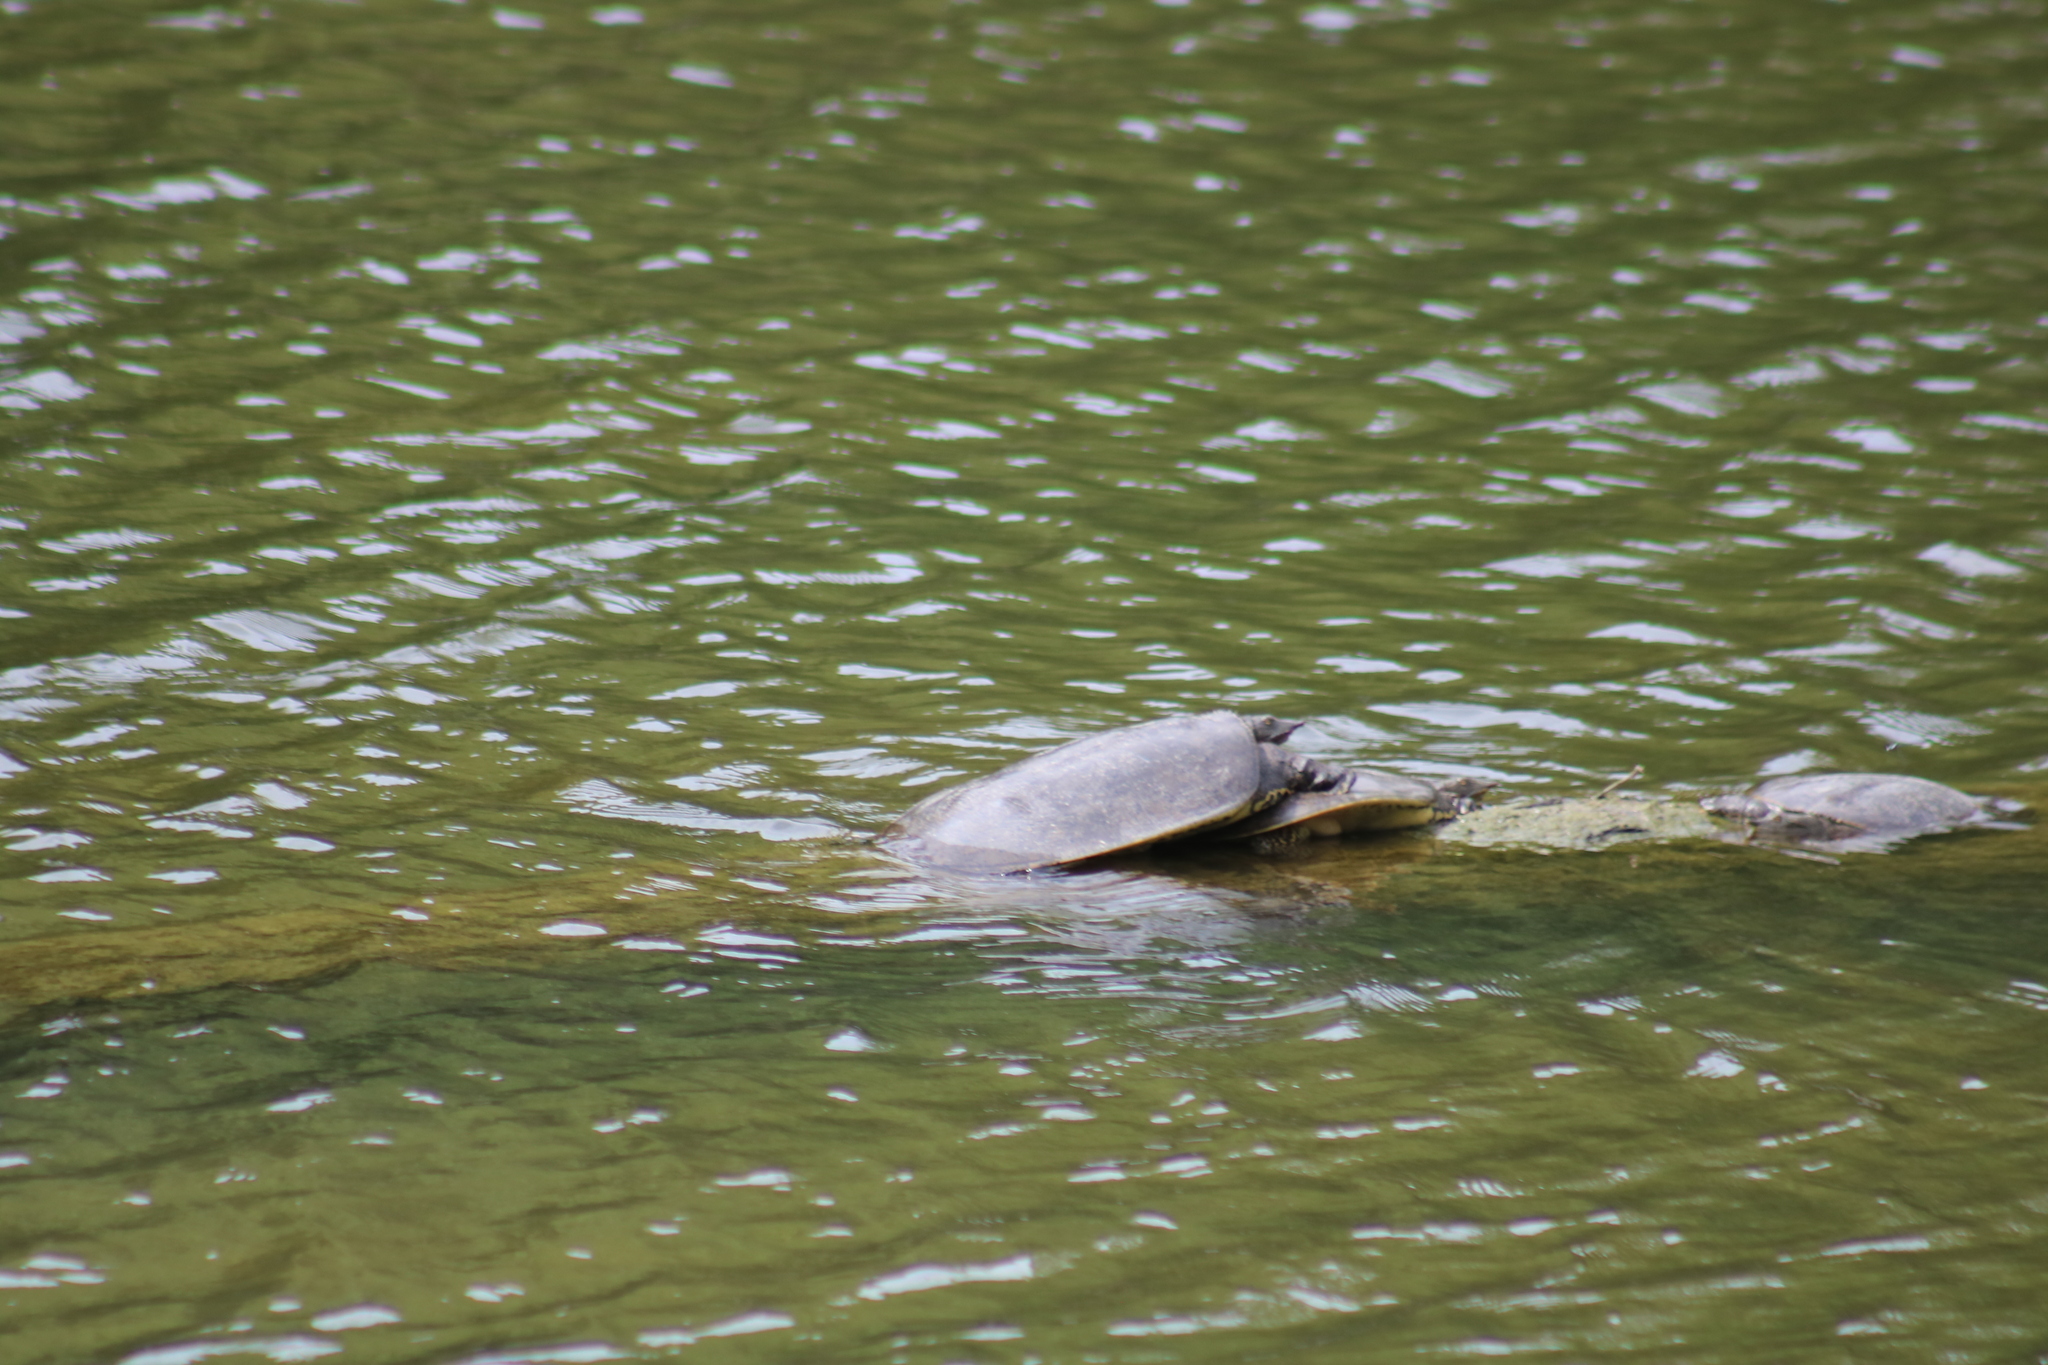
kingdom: Animalia
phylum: Chordata
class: Testudines
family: Trionychidae
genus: Apalone
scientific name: Apalone spinifera
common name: Spiny softshell turtle
